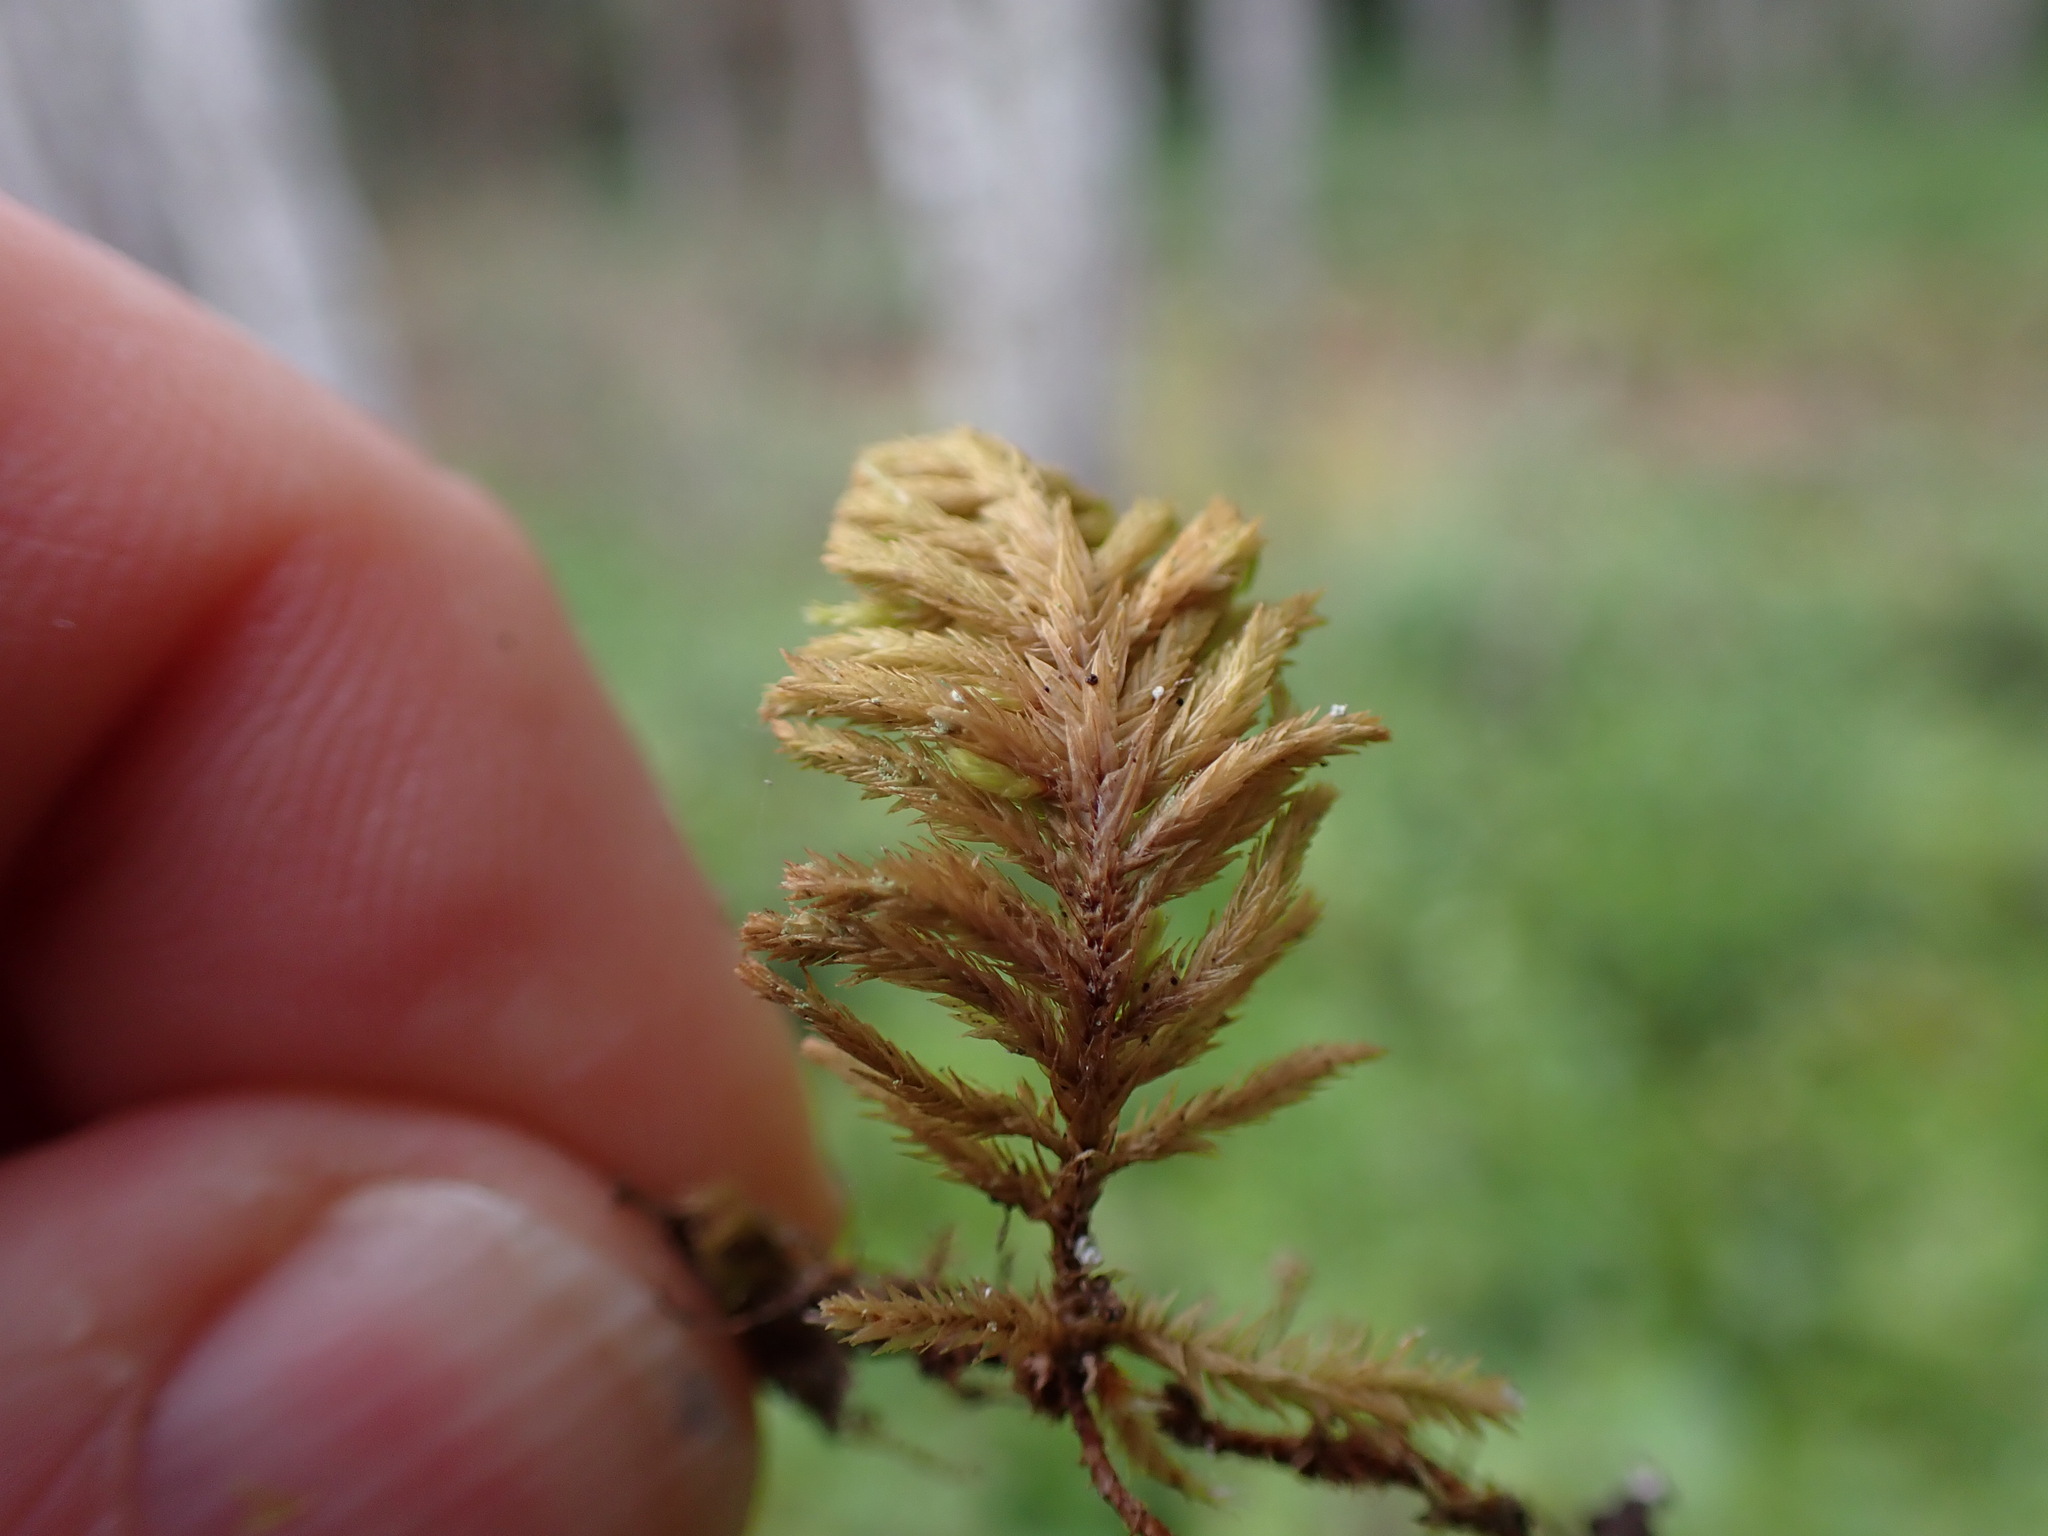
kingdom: Plantae
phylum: Bryophyta
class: Bryopsida
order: Hypnales
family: Cryphaeaceae
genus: Dendroalsia
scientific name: Dendroalsia abietina
